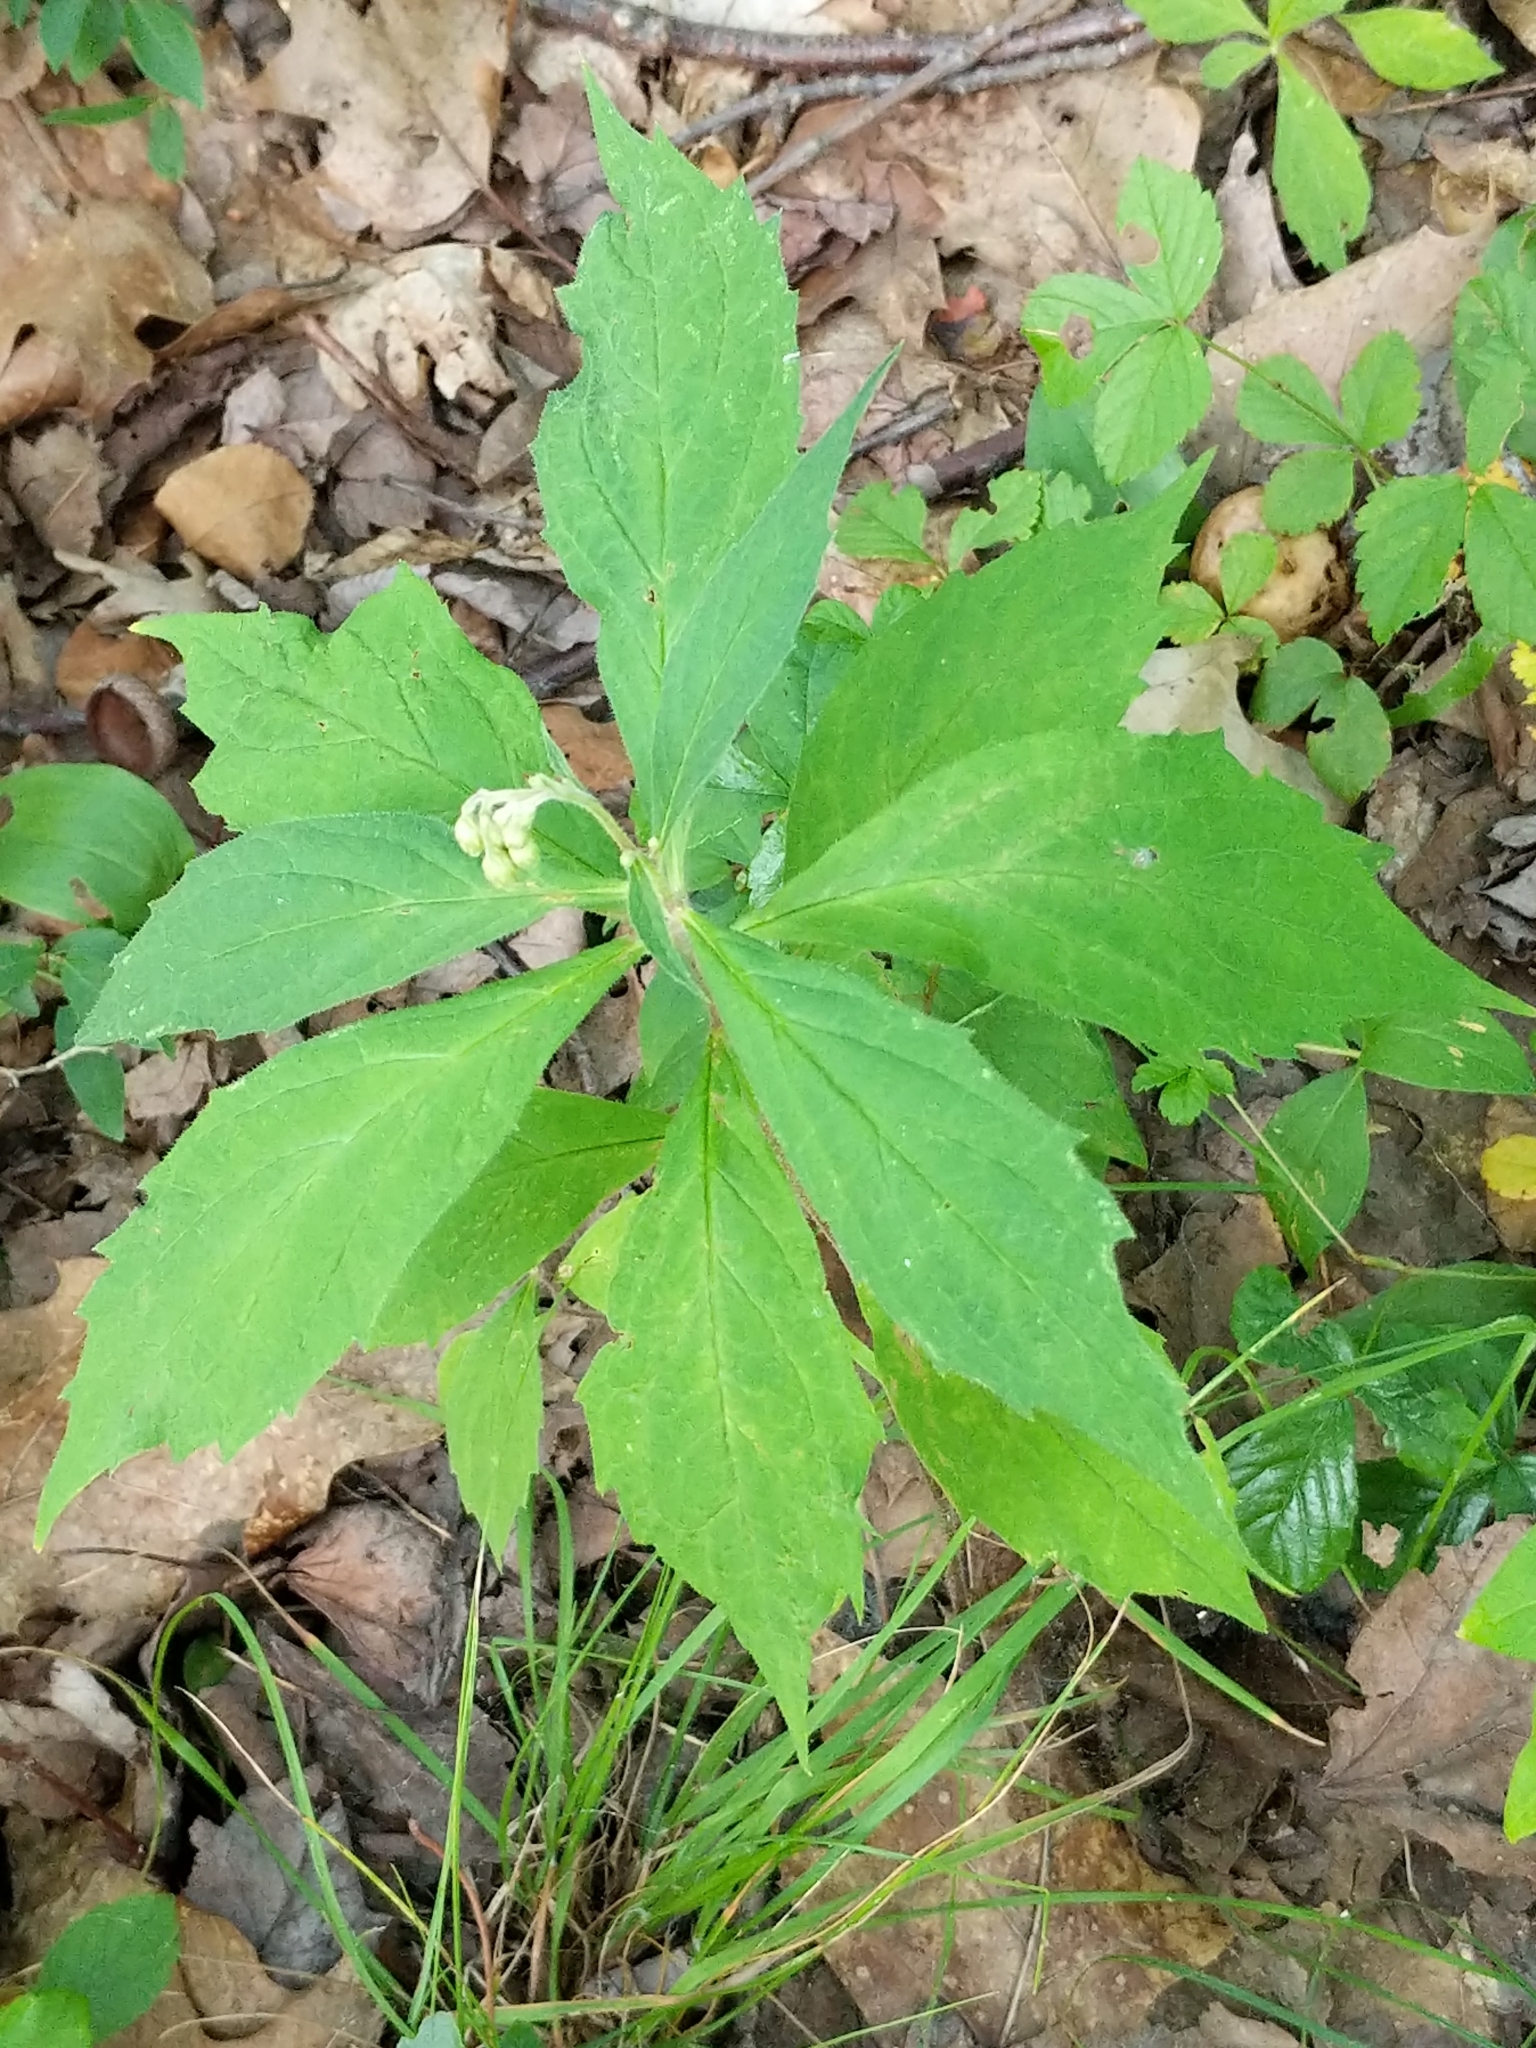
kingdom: Plantae
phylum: Tracheophyta
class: Magnoliopsida
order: Asterales
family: Asteraceae
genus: Oclemena
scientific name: Oclemena acuminata
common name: Mountain aster
